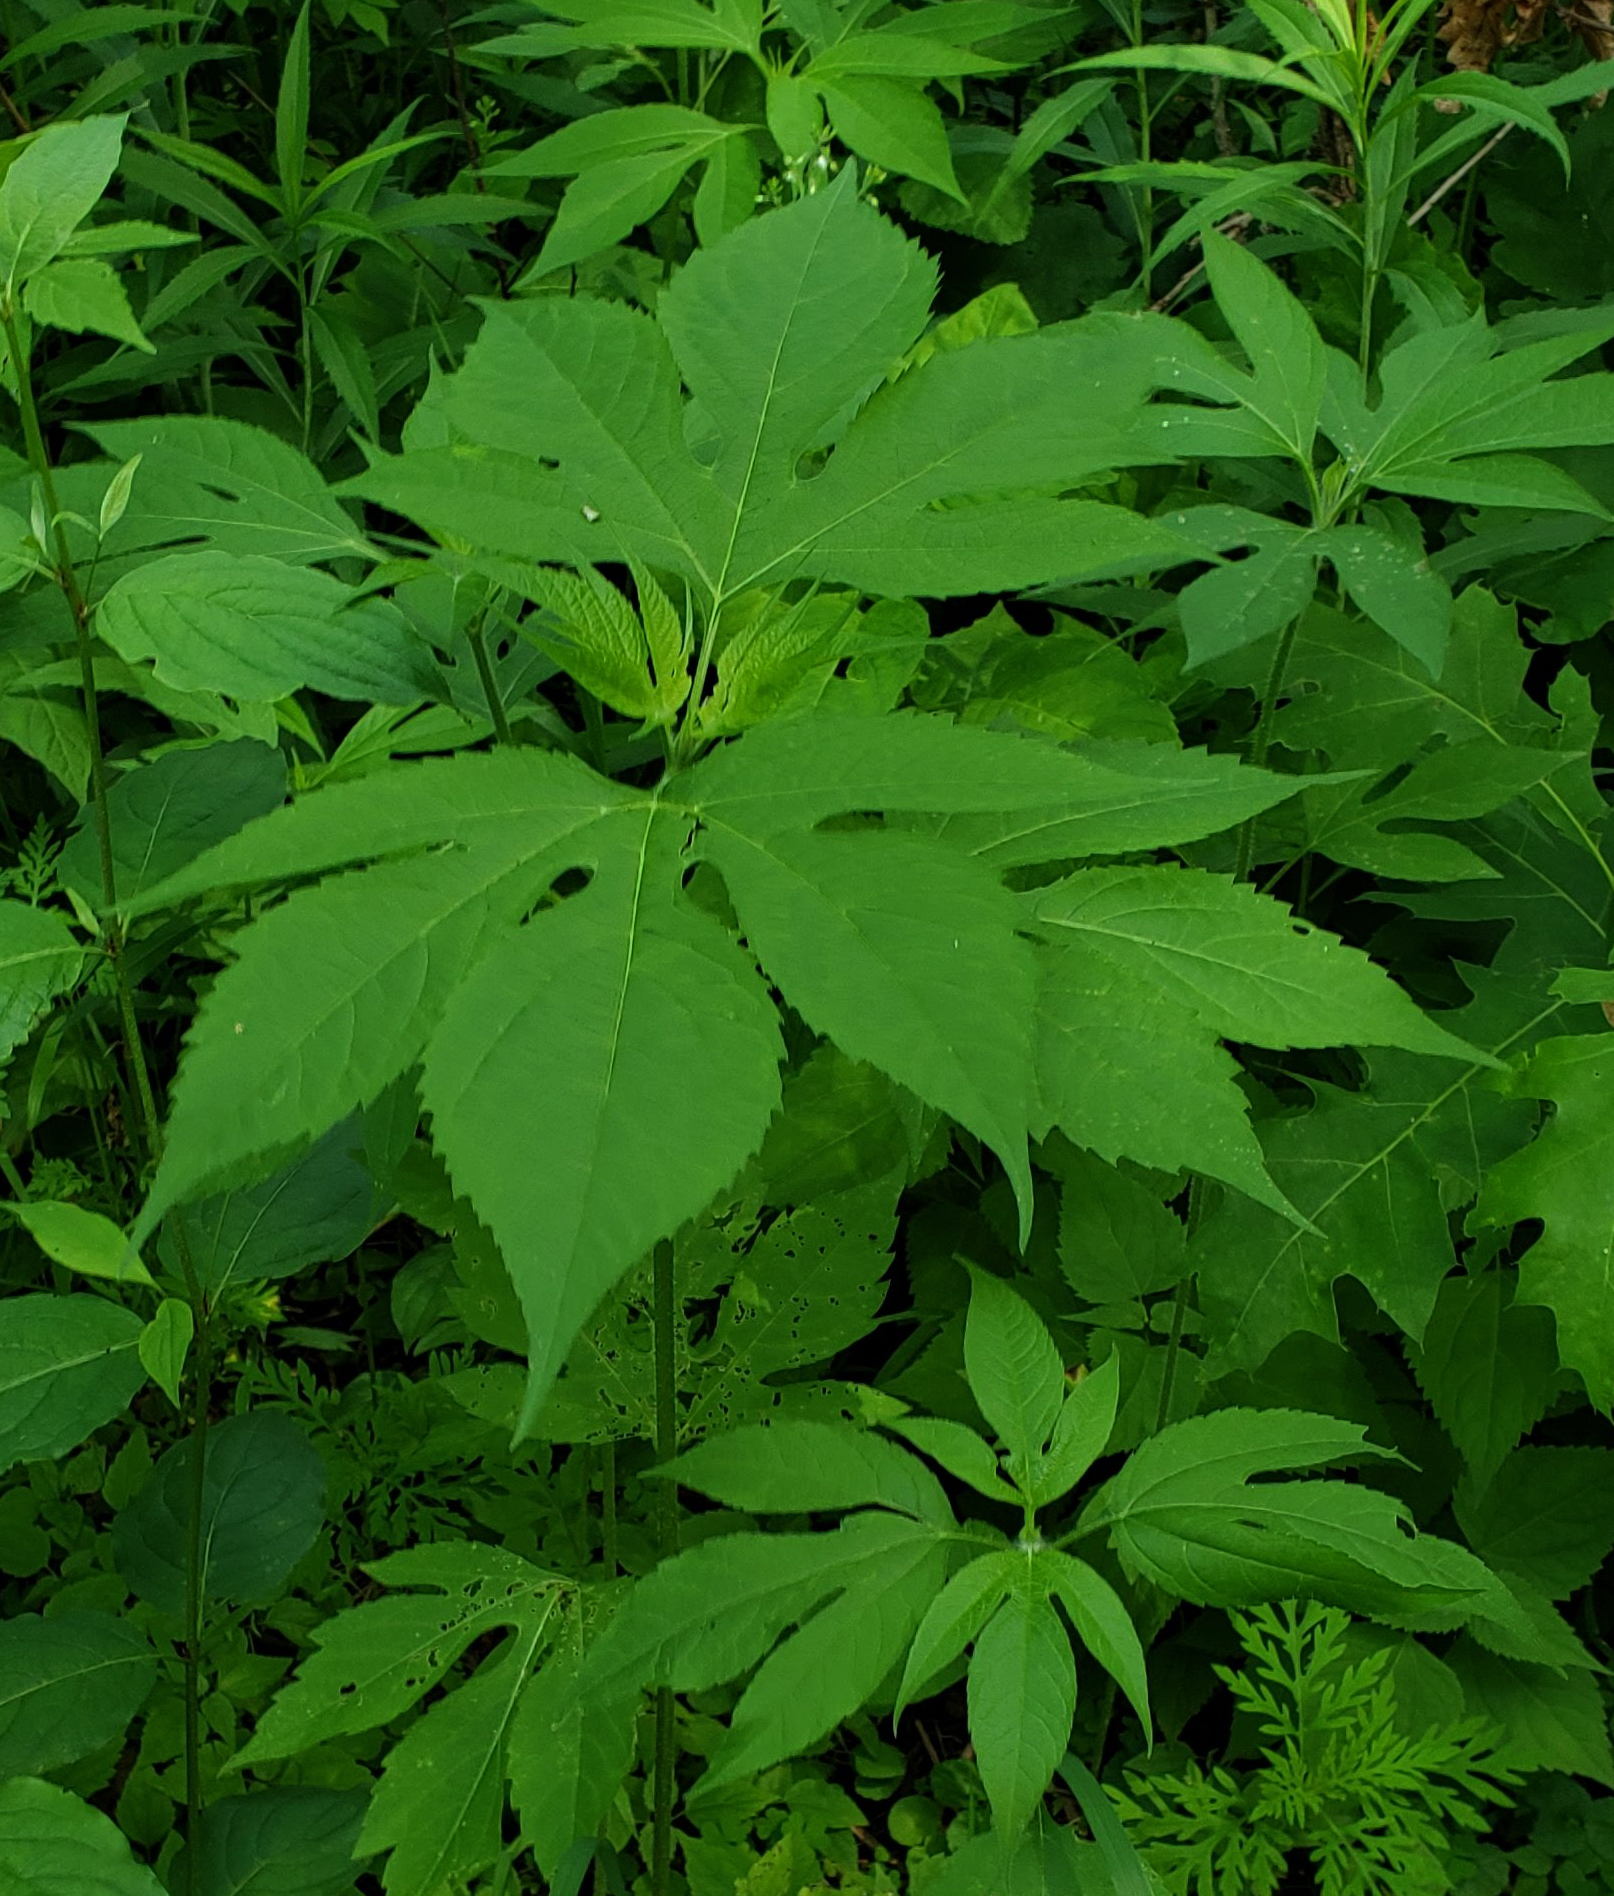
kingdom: Plantae
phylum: Tracheophyta
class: Magnoliopsida
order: Asterales
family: Asteraceae
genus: Ambrosia
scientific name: Ambrosia trifida
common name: Giant ragweed
